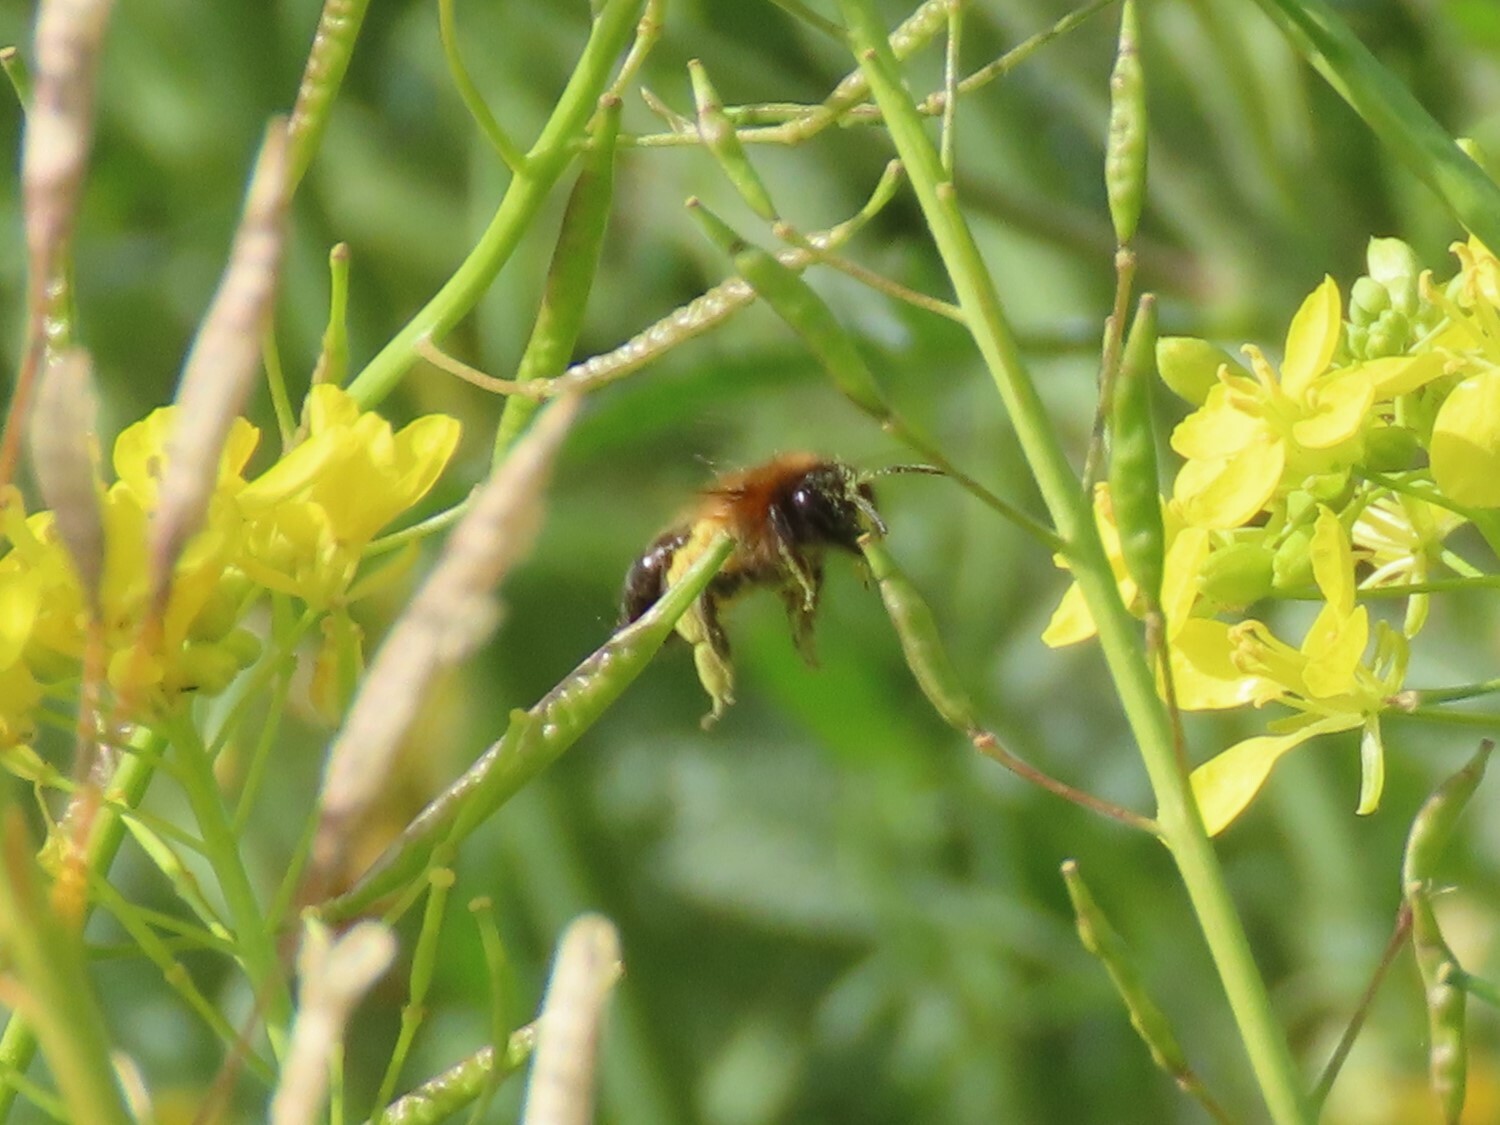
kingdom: Animalia
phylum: Arthropoda
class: Insecta
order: Hymenoptera
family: Andrenidae
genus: Andrena
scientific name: Andrena
